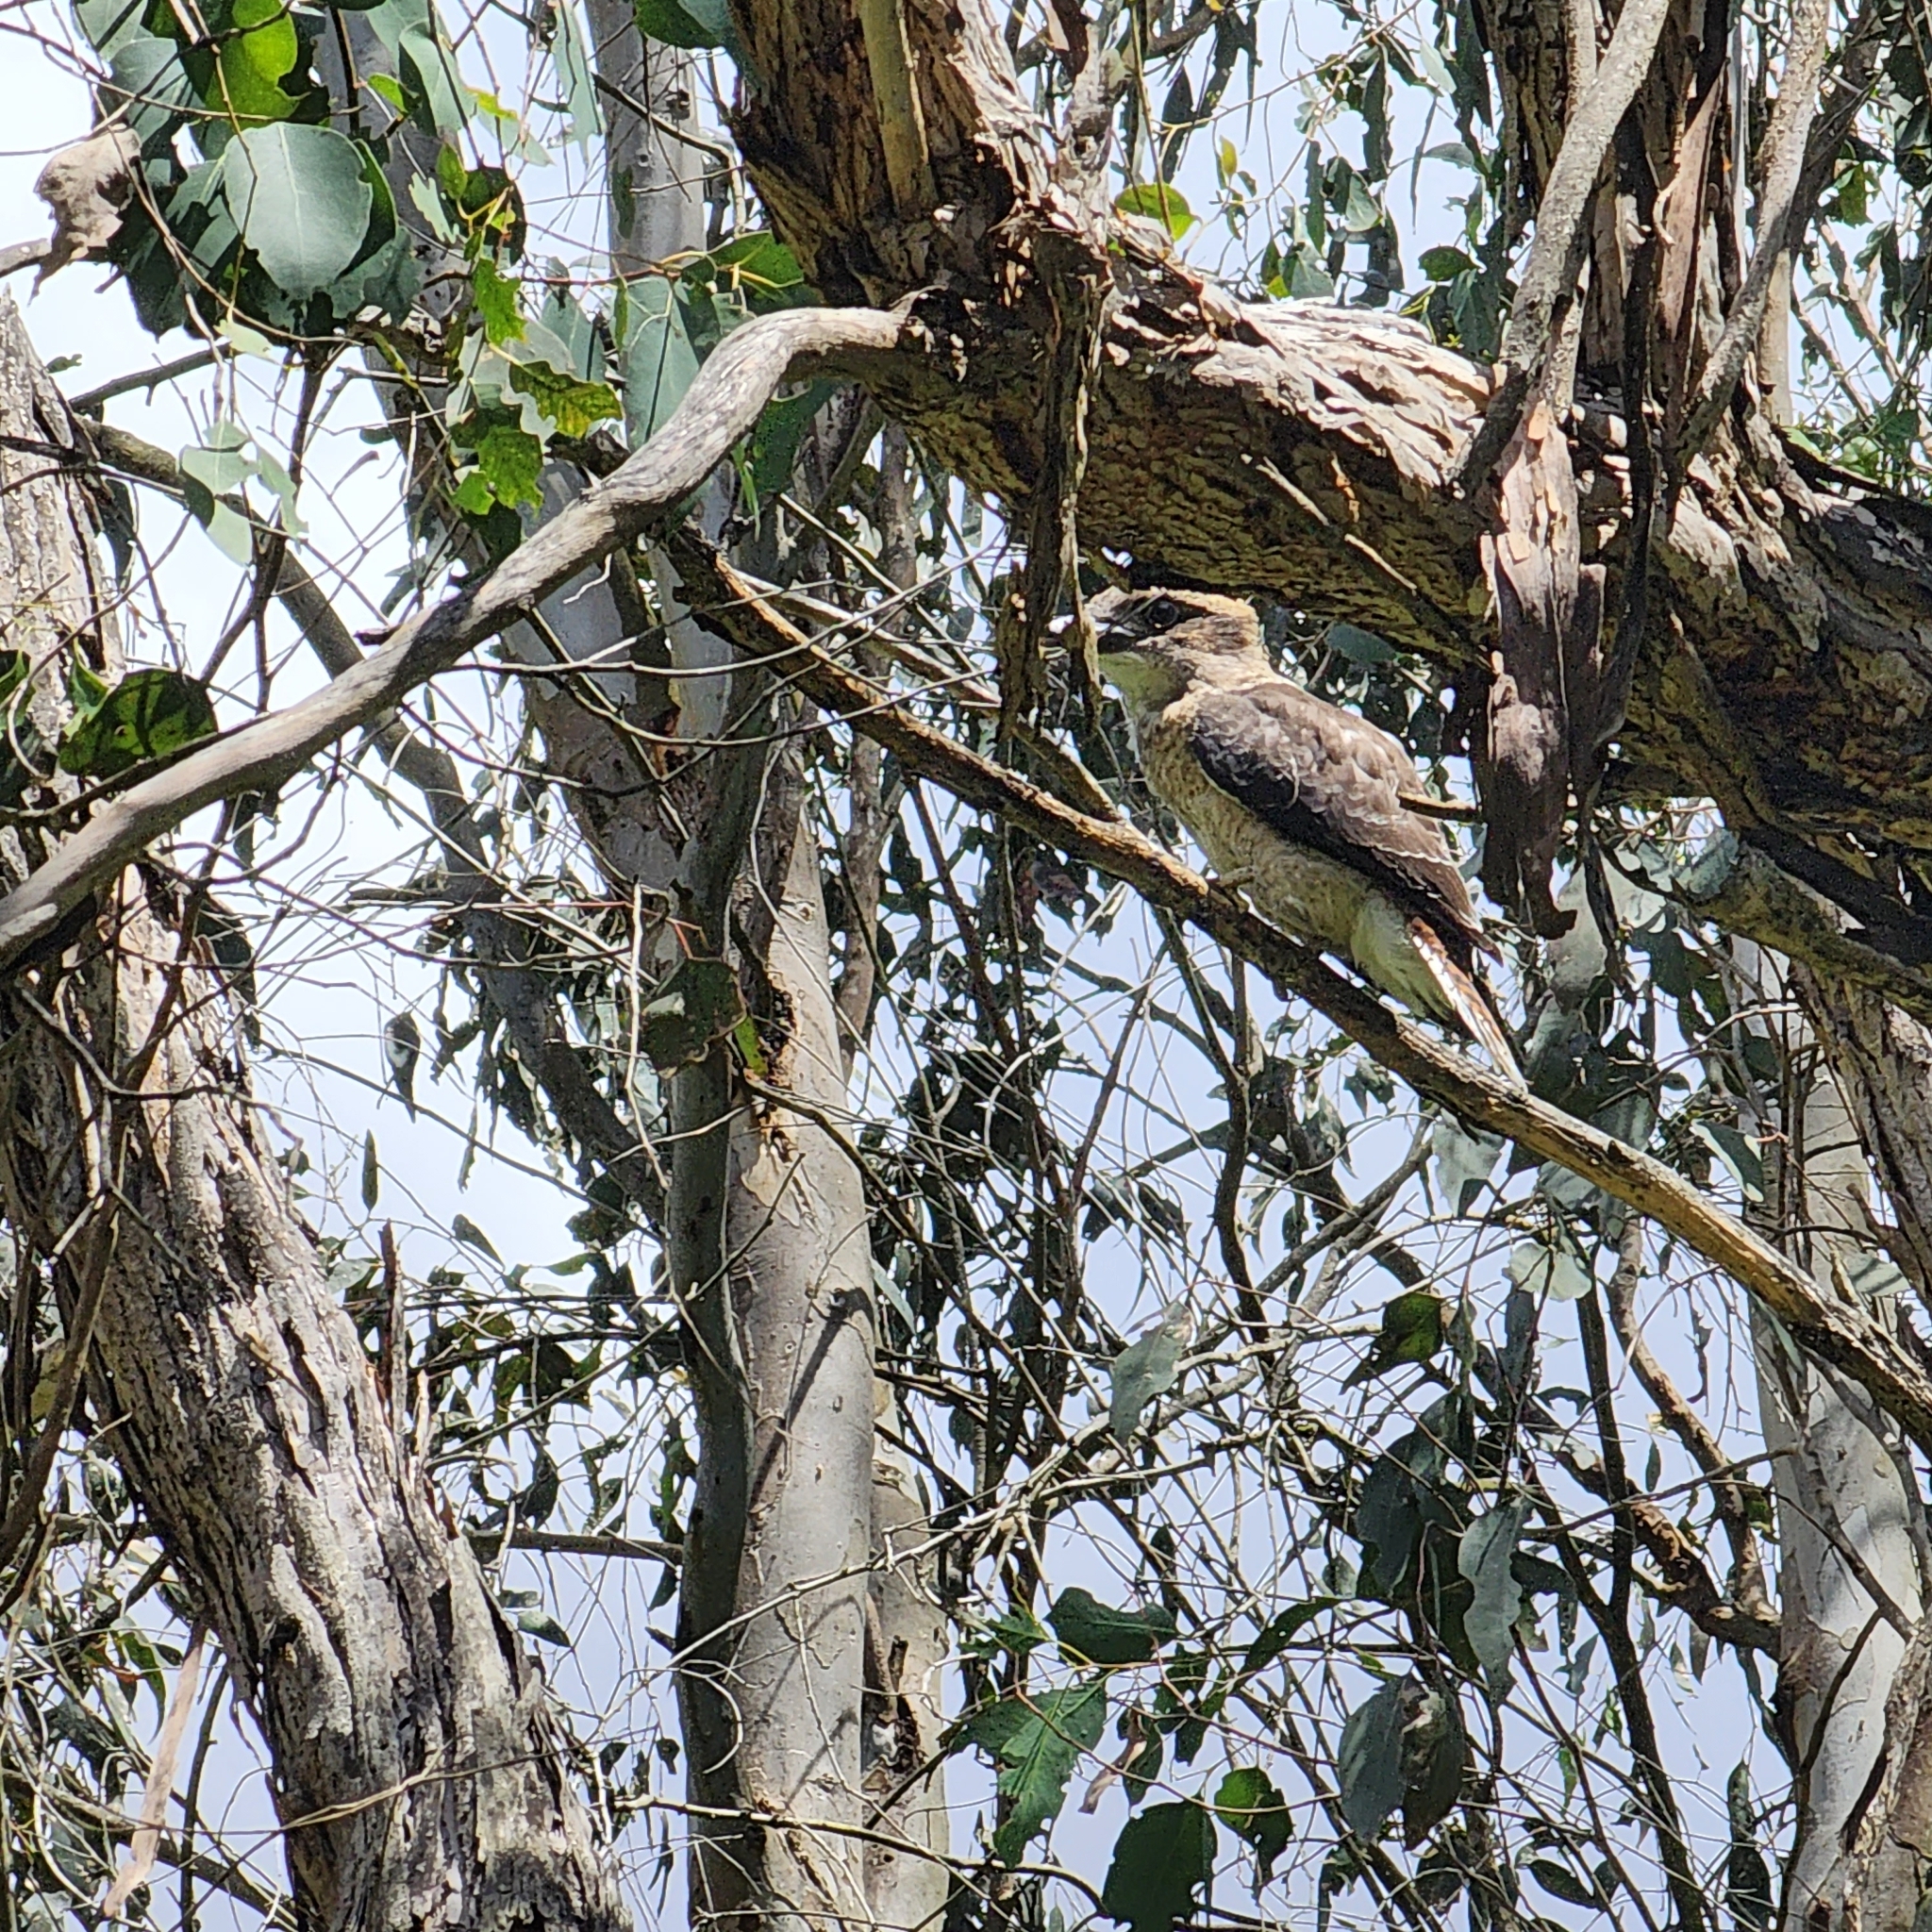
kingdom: Animalia
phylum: Chordata
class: Aves
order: Coraciiformes
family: Alcedinidae
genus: Dacelo
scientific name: Dacelo novaeguineae
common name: Laughing kookaburra
